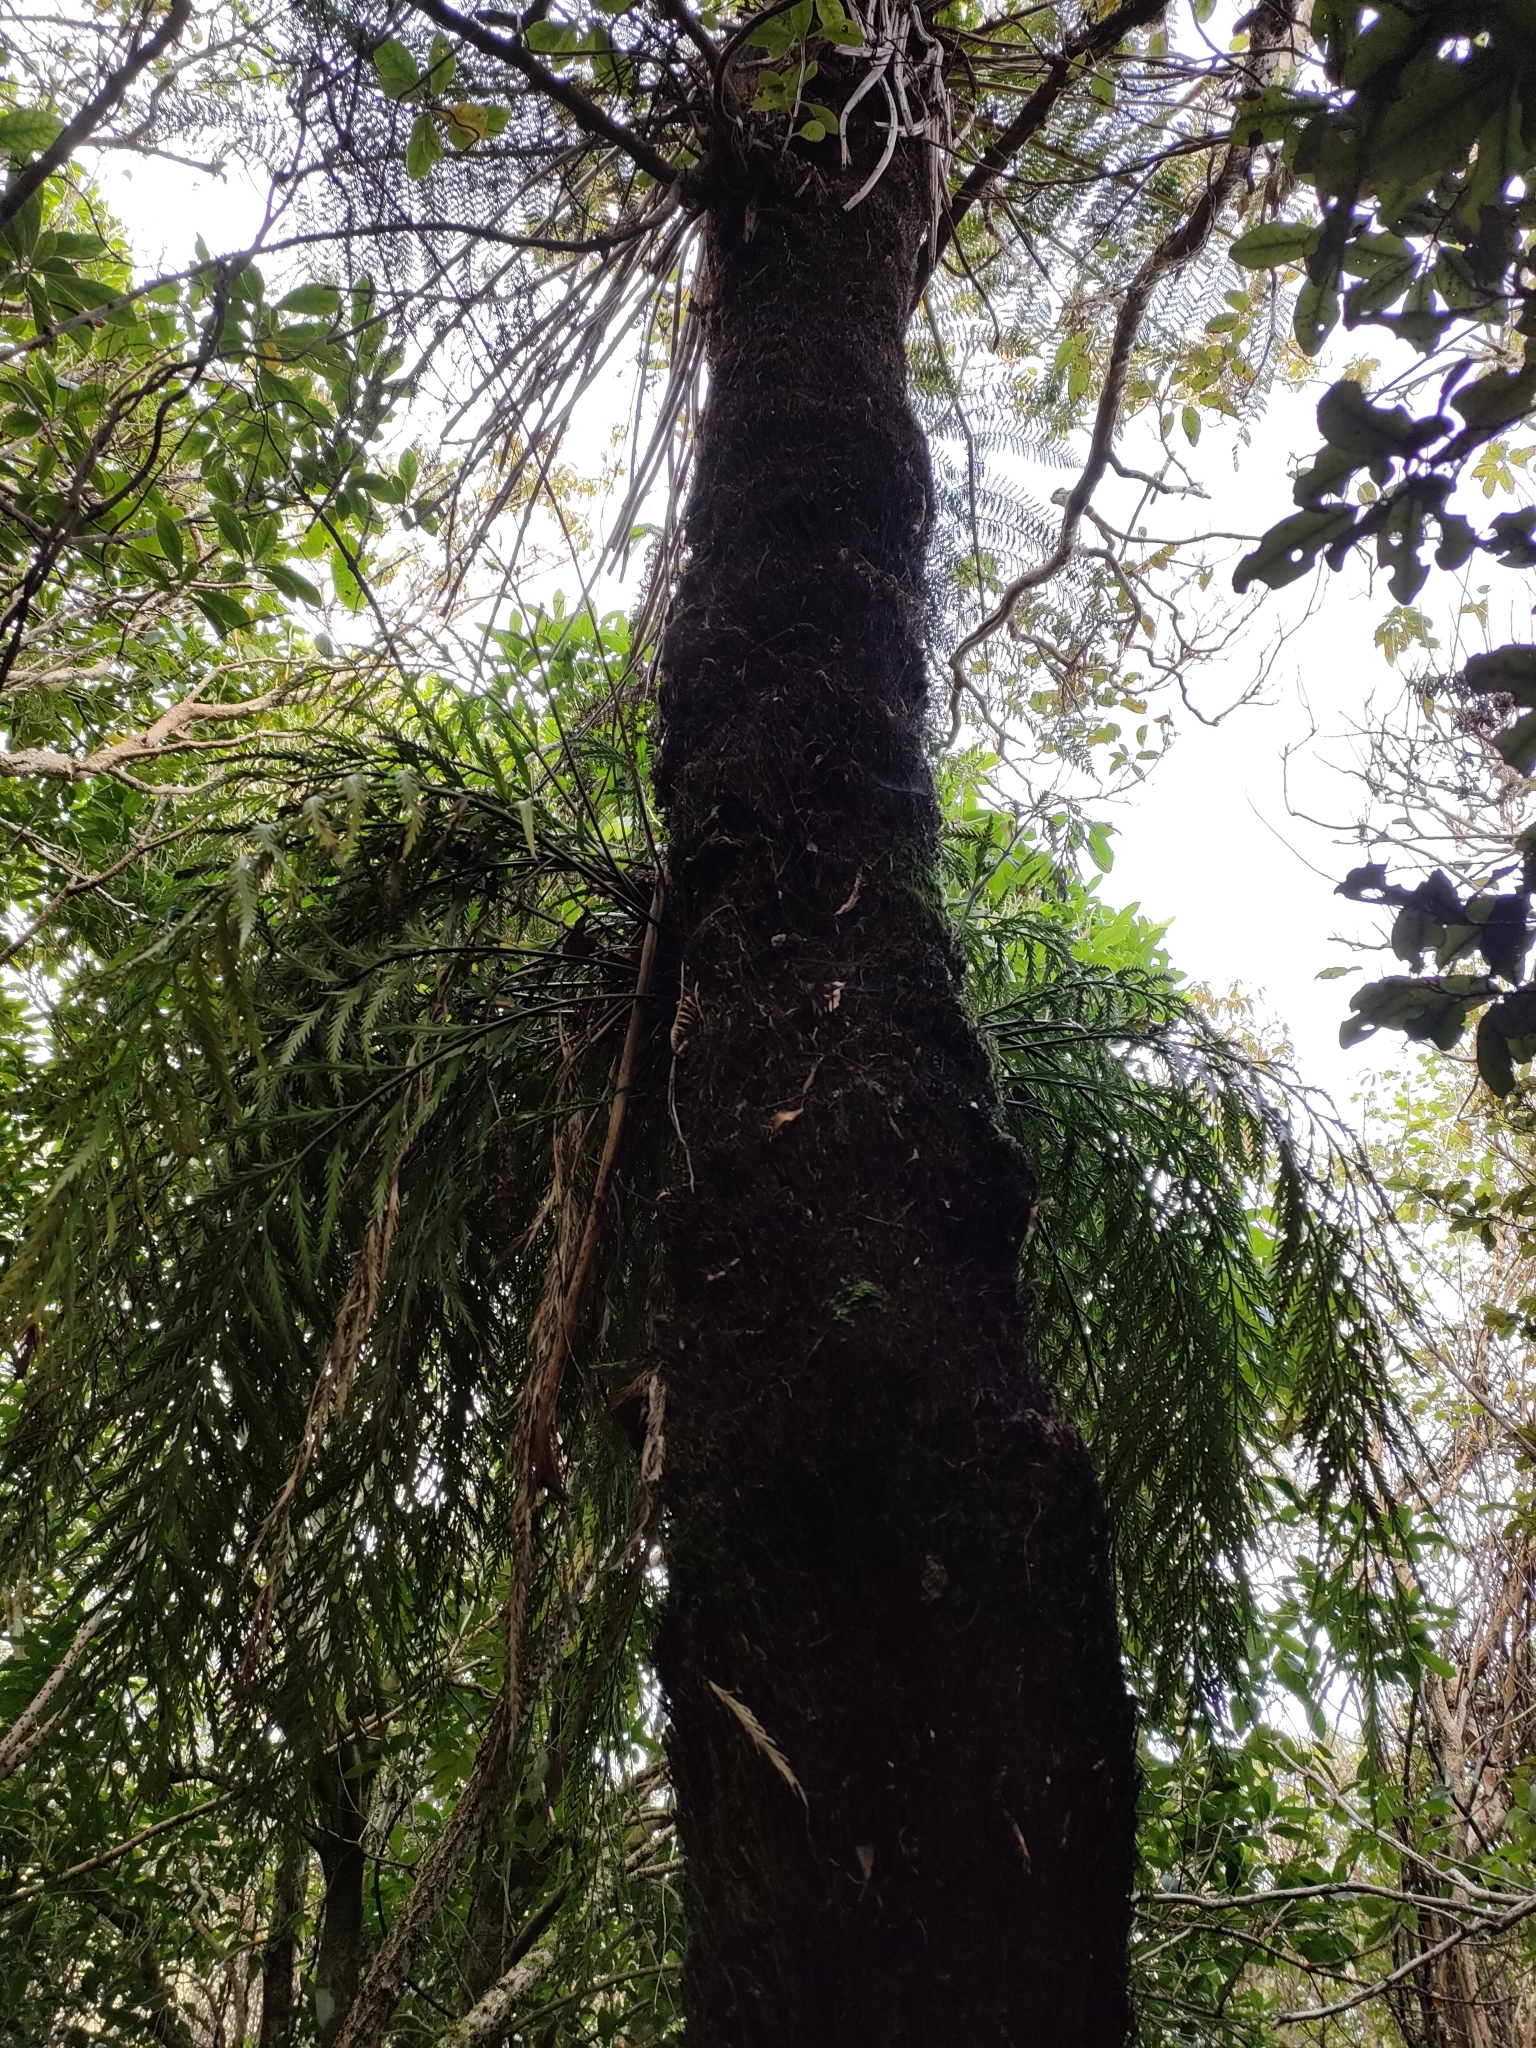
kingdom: Plantae
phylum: Tracheophyta
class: Polypodiopsida
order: Polypodiales
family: Aspleniaceae
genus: Asplenium
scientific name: Asplenium flaccidum
